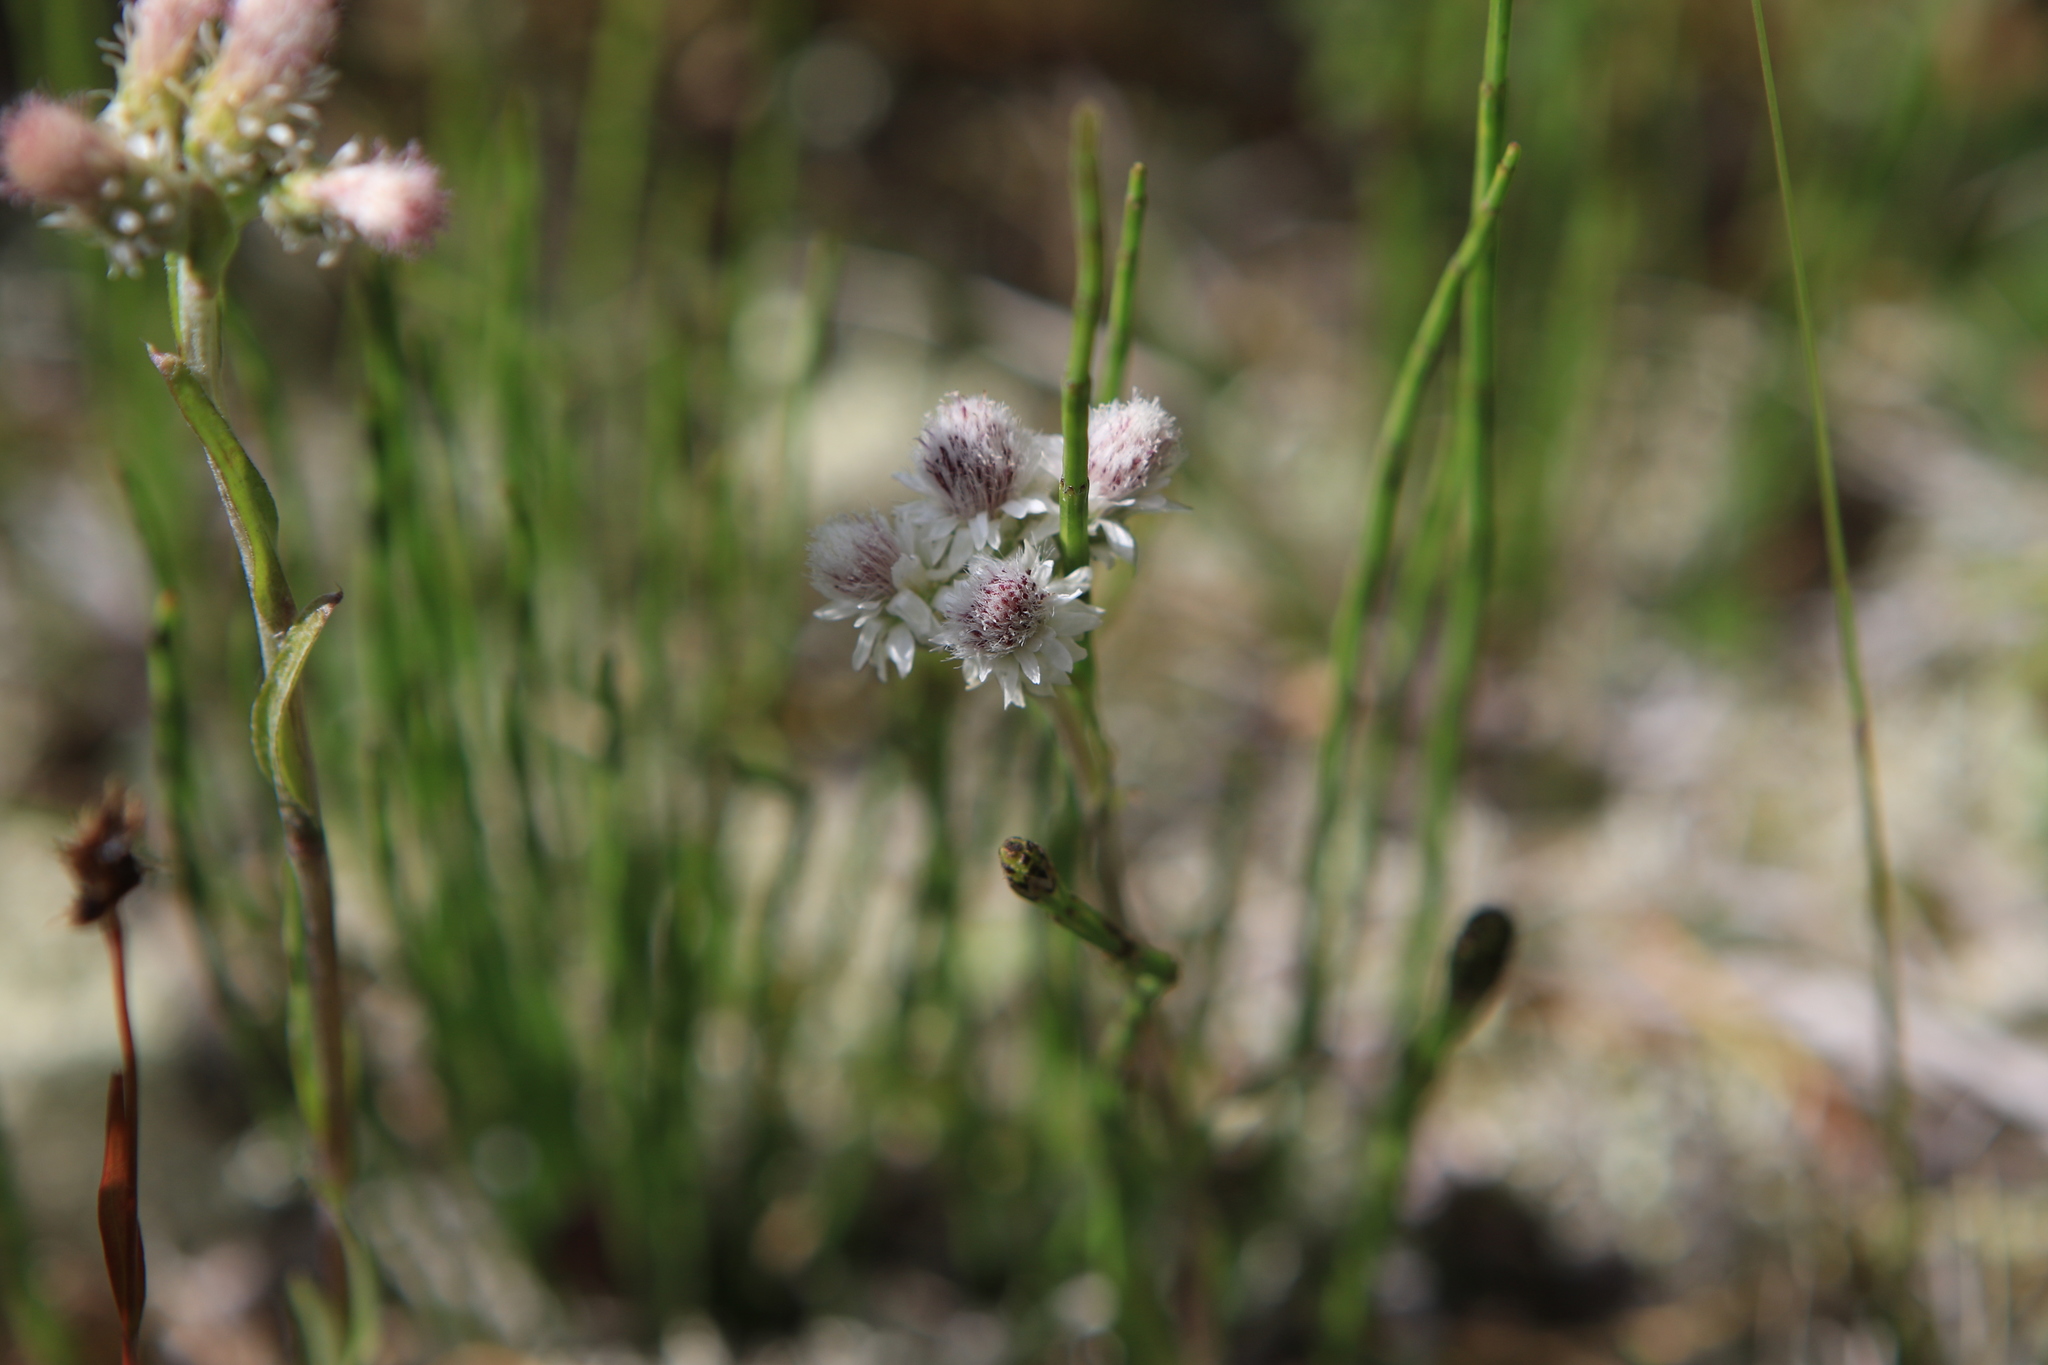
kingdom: Plantae
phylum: Tracheophyta
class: Magnoliopsida
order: Asterales
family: Asteraceae
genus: Antennaria
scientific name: Antennaria dioica
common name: Mountain everlasting
